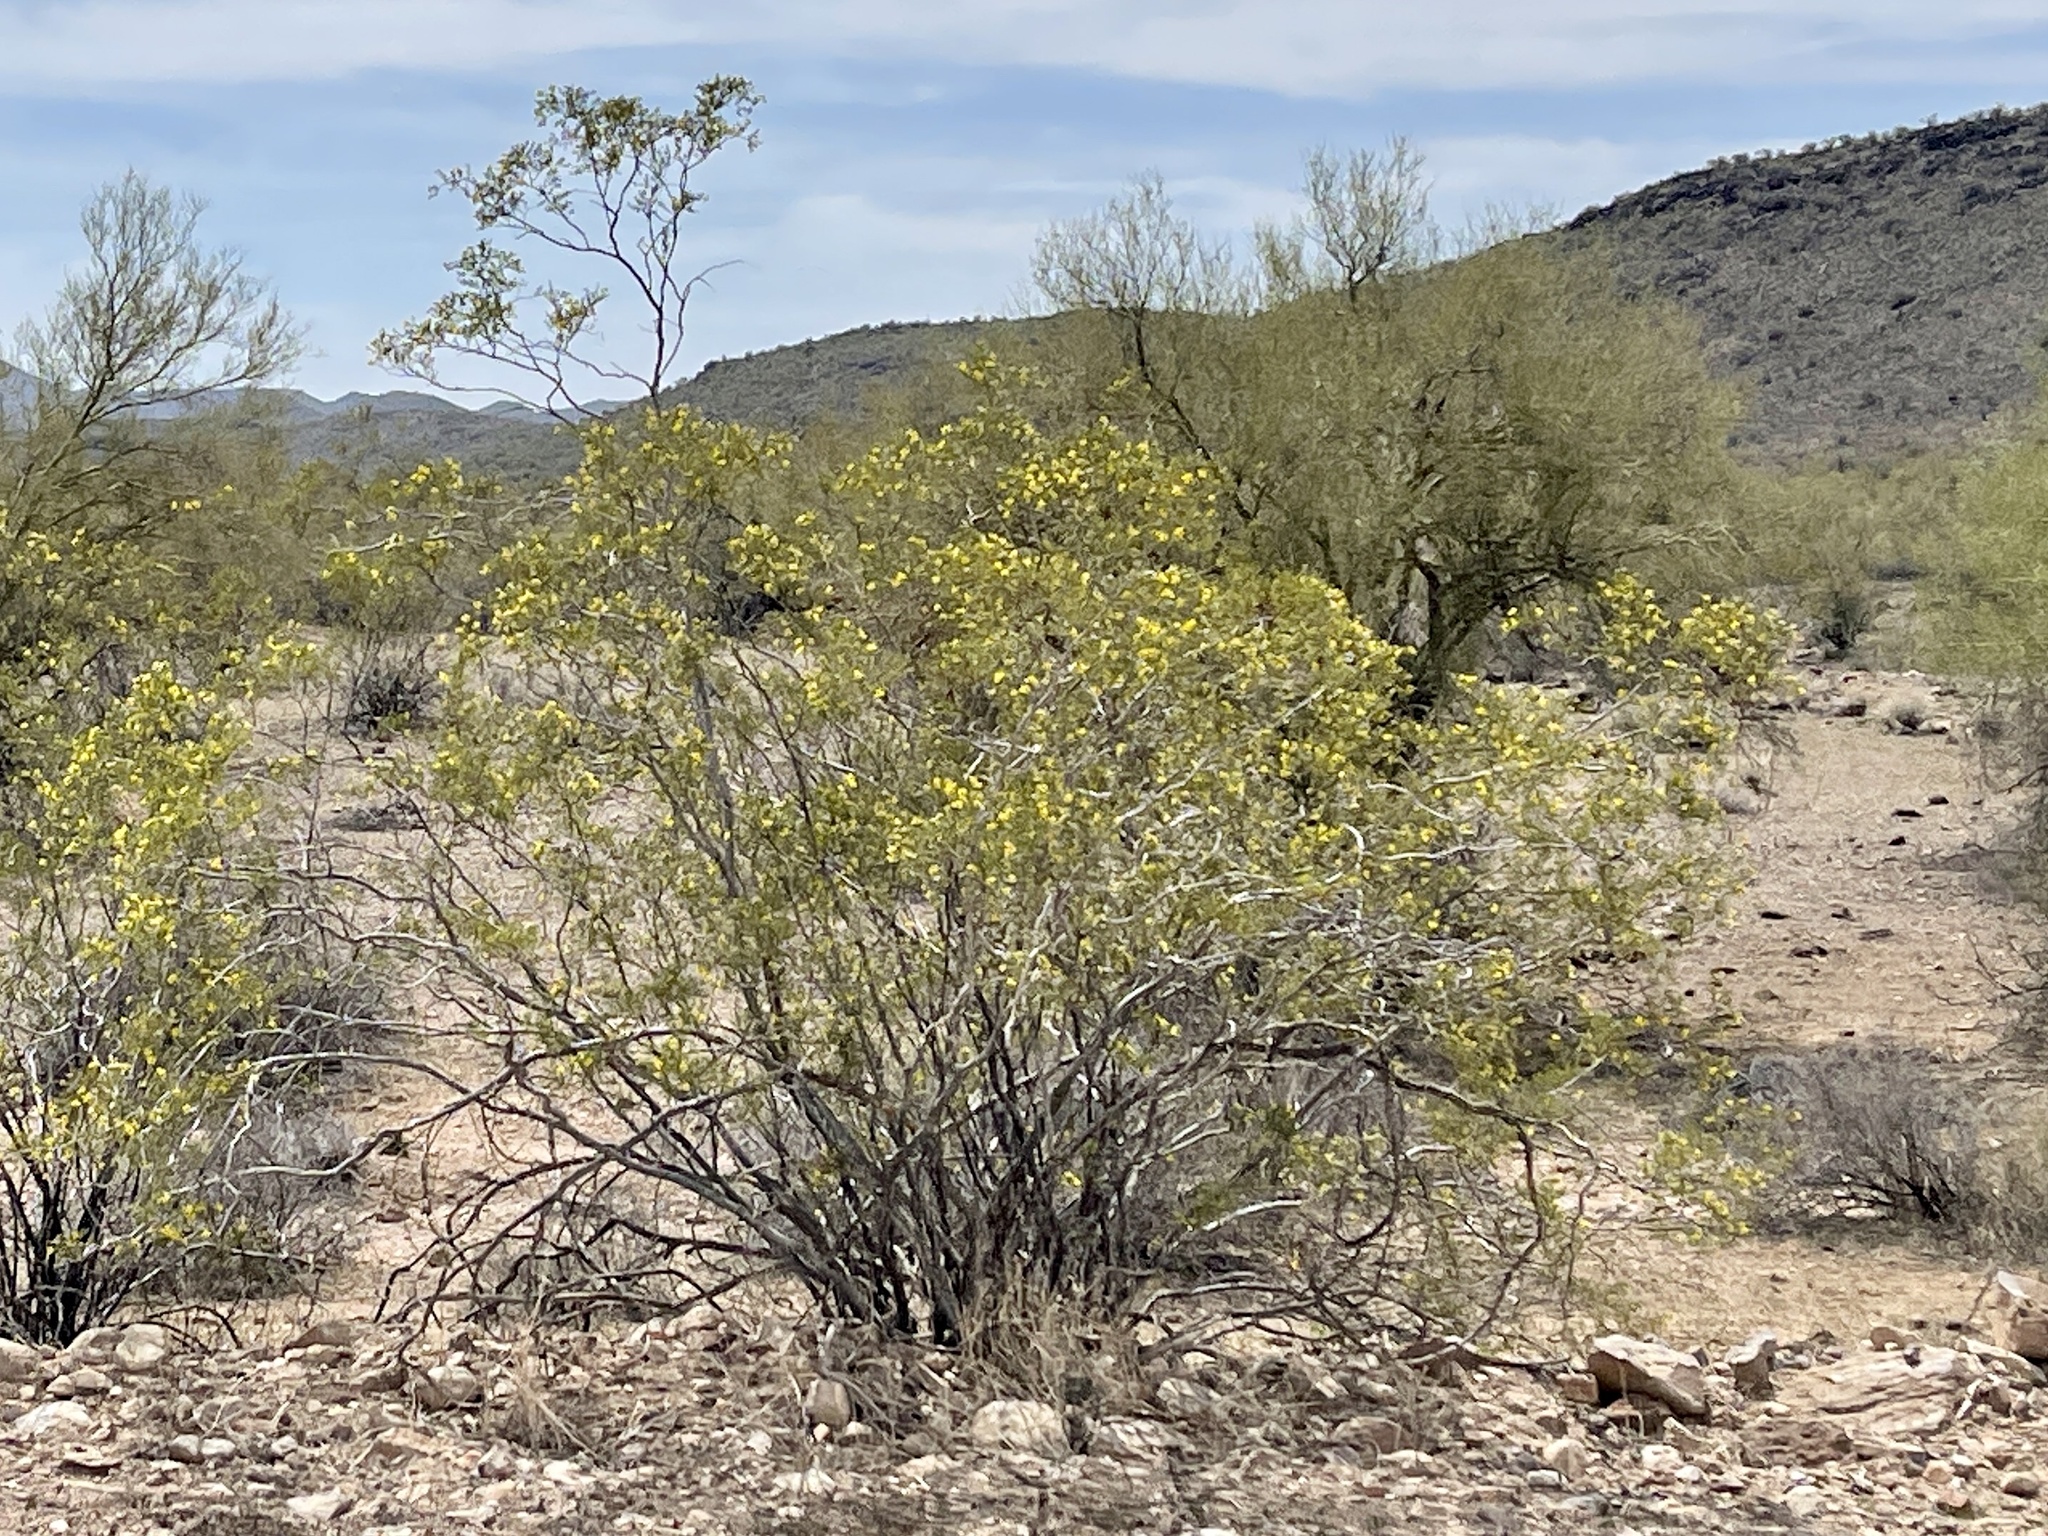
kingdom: Plantae
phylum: Tracheophyta
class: Magnoliopsida
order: Zygophyllales
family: Zygophyllaceae
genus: Larrea
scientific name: Larrea tridentata
